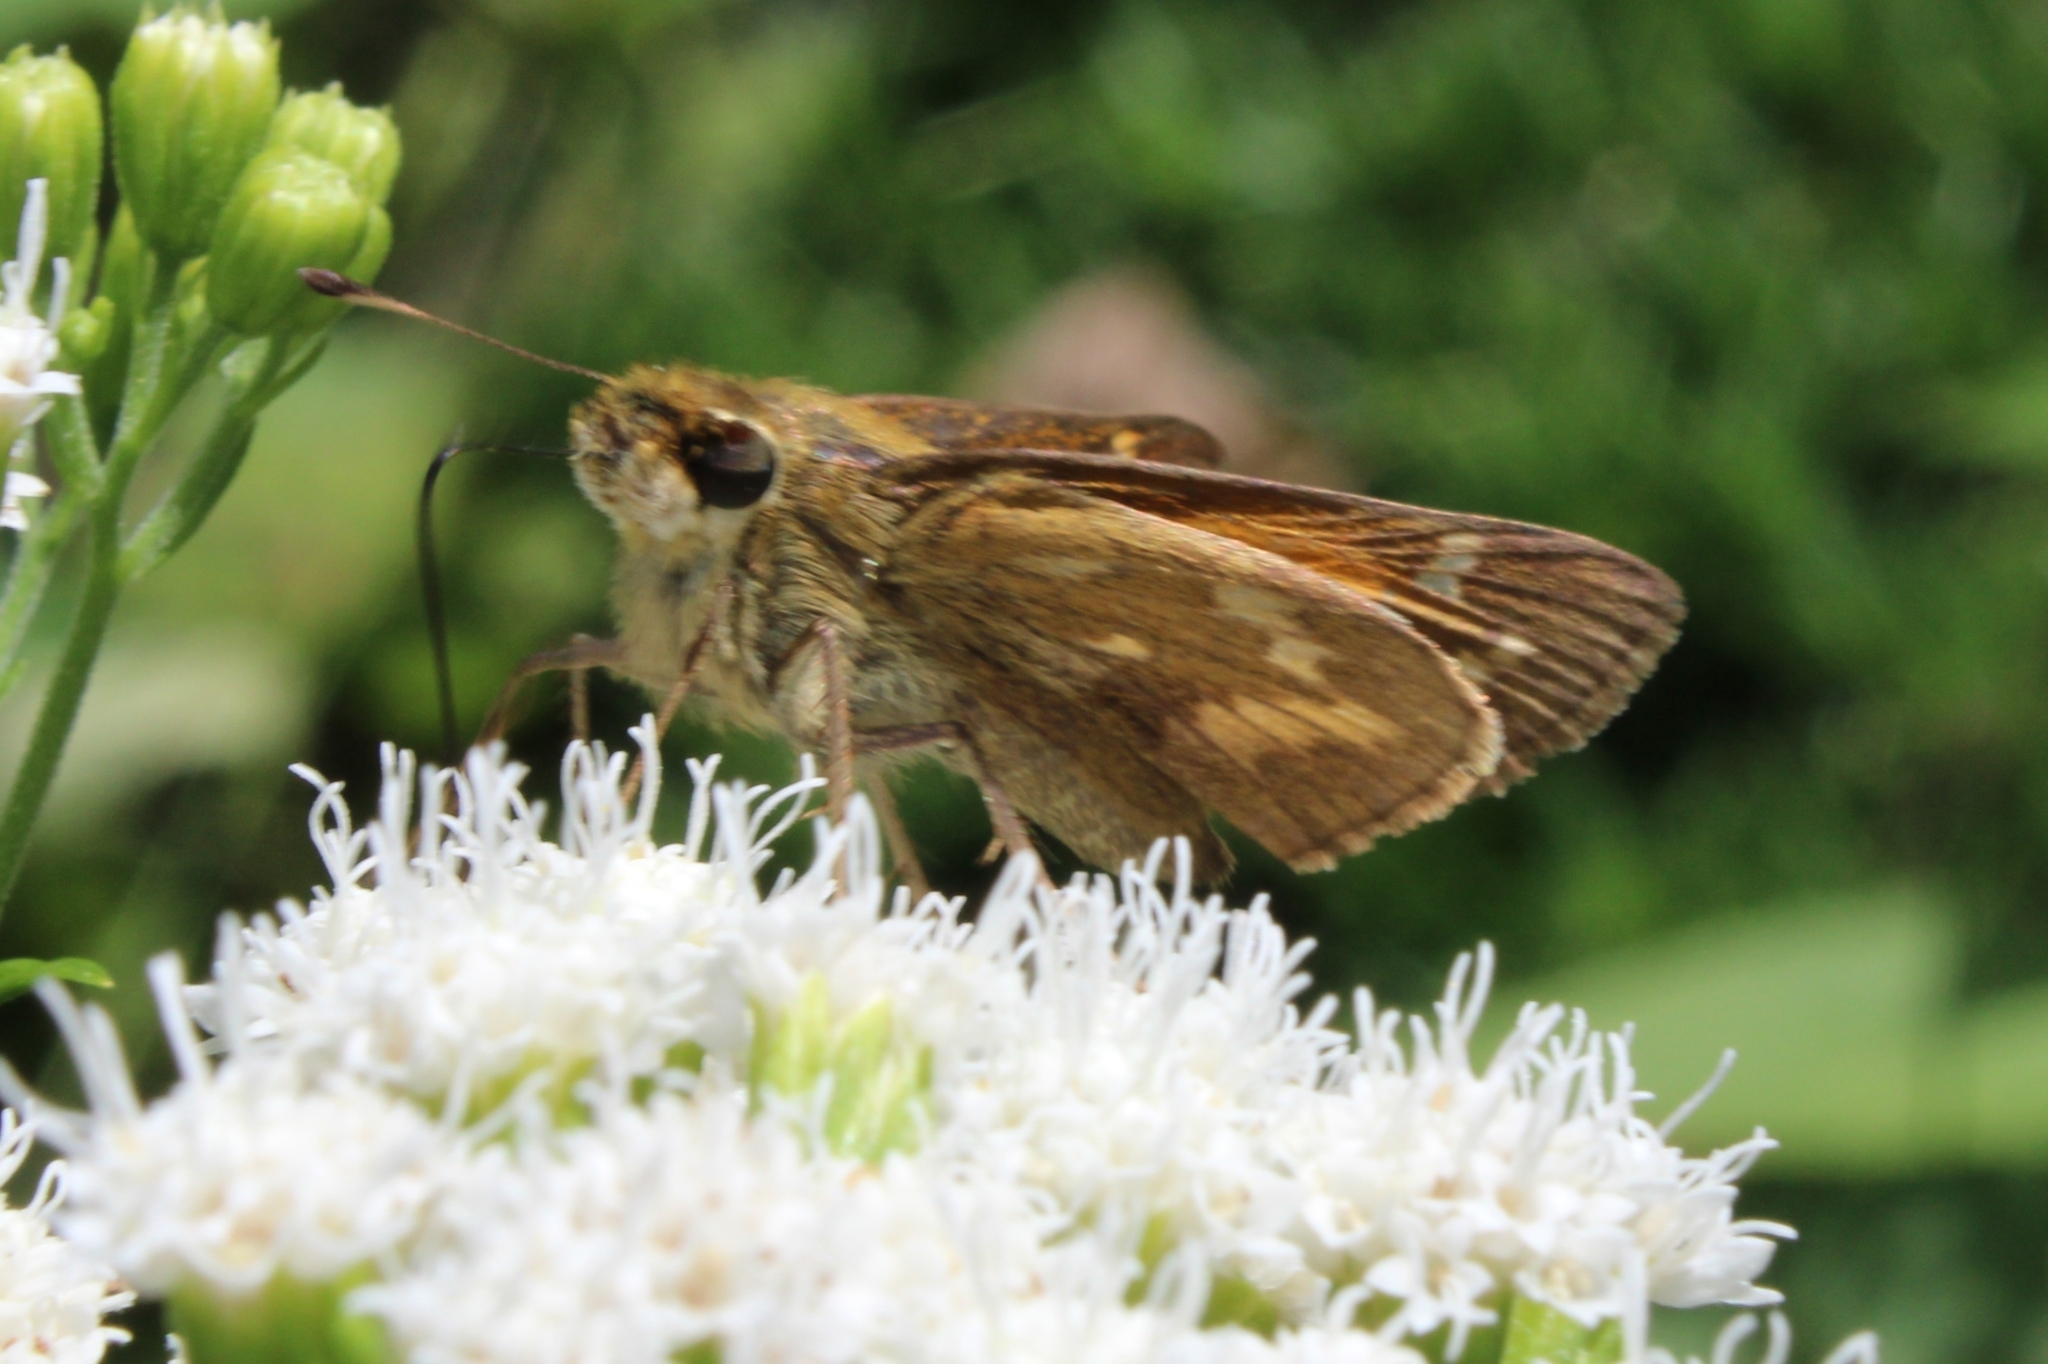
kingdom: Animalia
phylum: Arthropoda
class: Insecta
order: Lepidoptera
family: Hesperiidae
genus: Atalopedes
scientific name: Atalopedes
